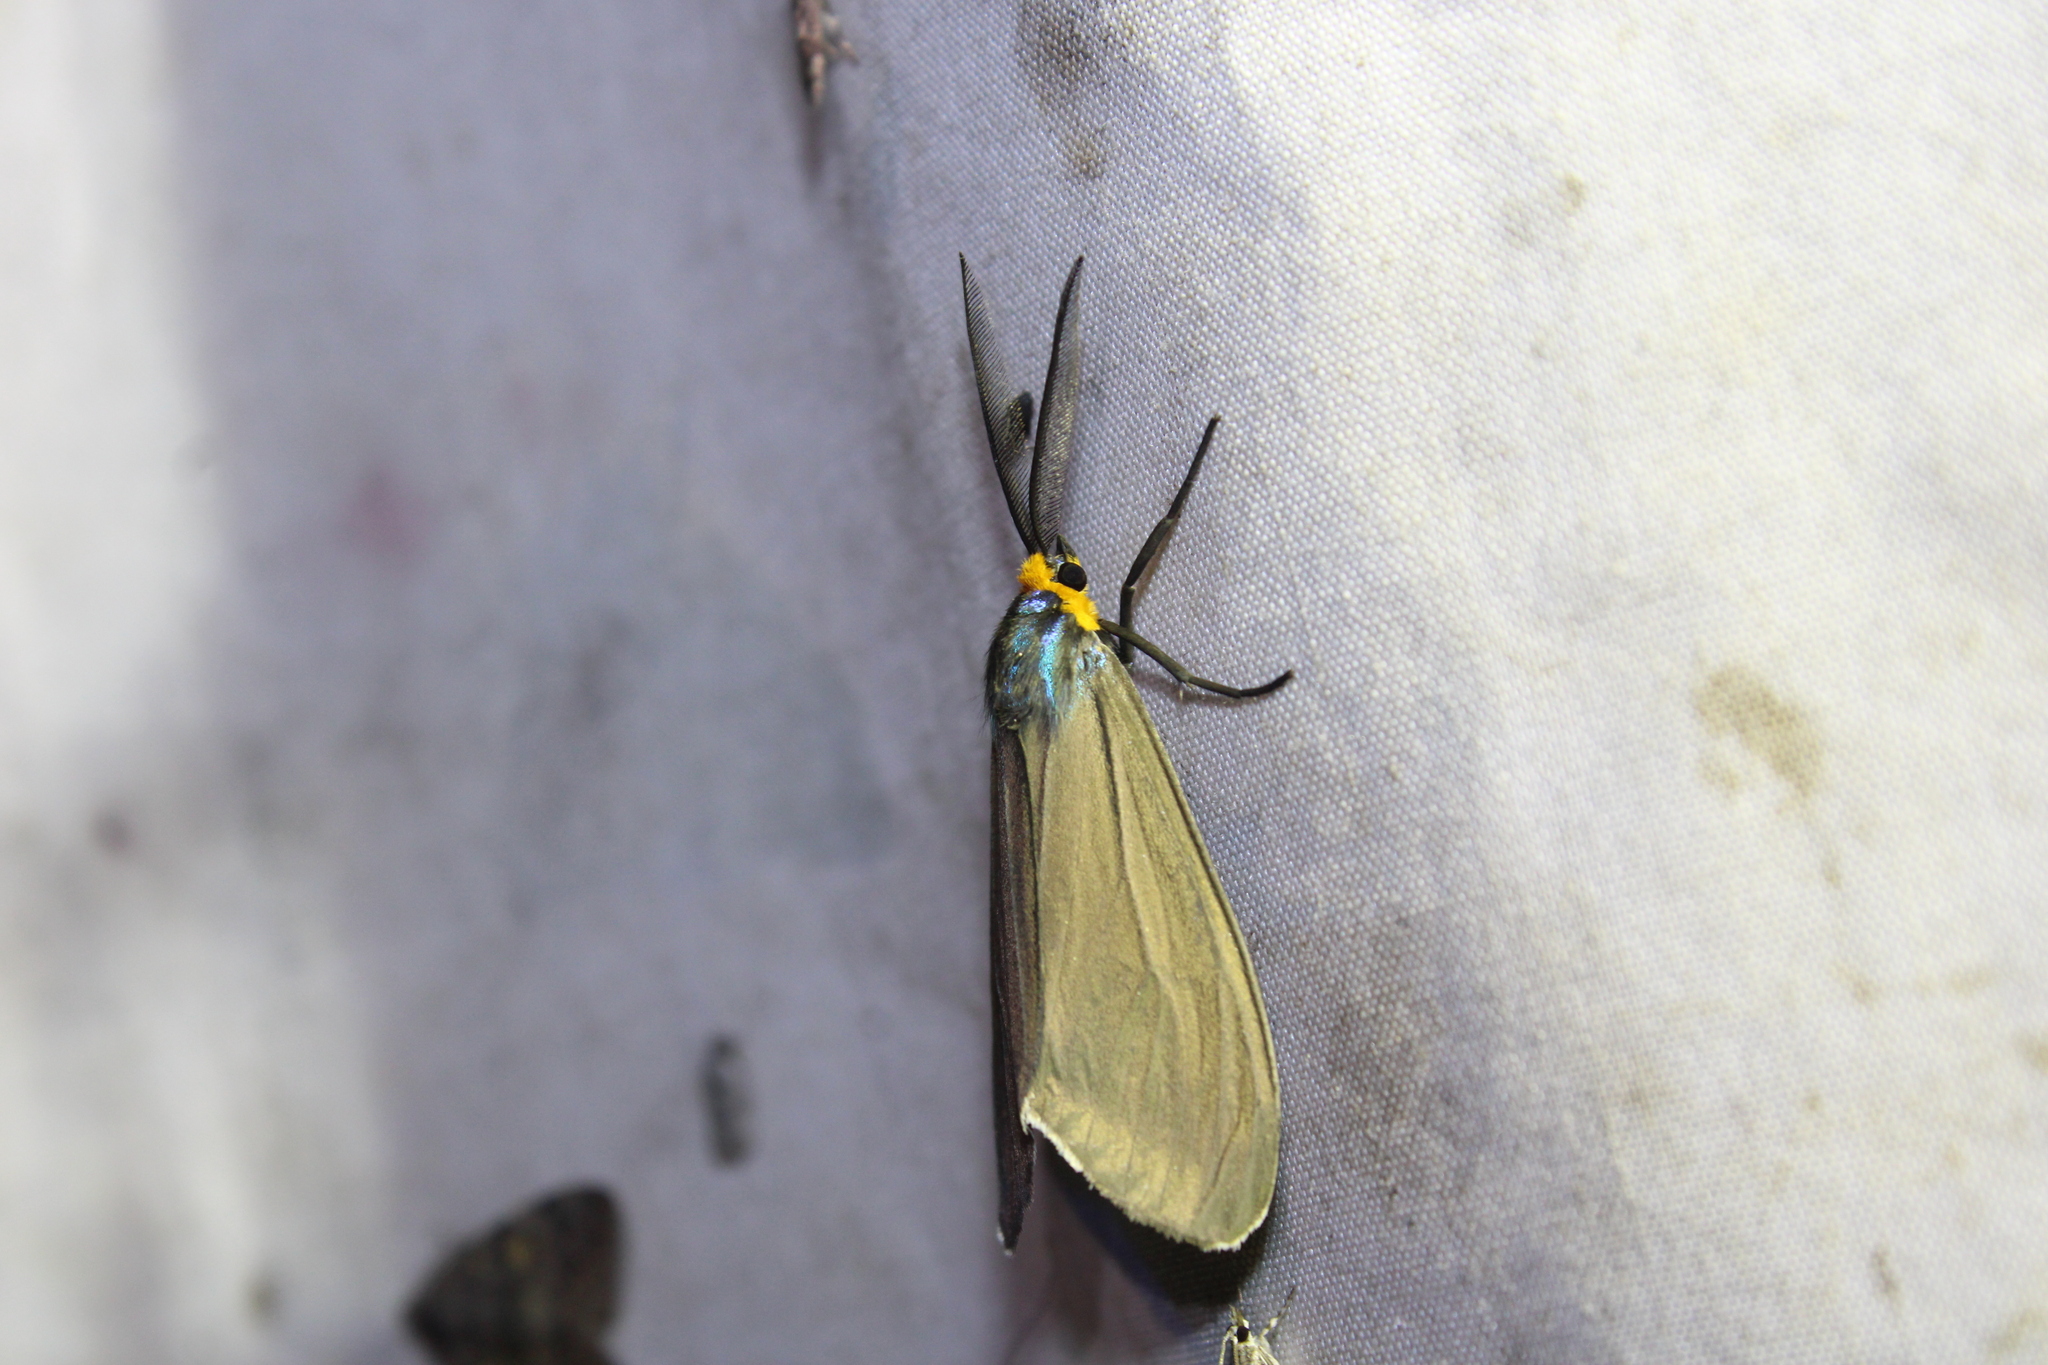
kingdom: Animalia
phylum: Arthropoda
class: Insecta
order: Lepidoptera
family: Erebidae
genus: Ctenucha
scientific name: Ctenucha virginica
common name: Virginia ctenucha moth
